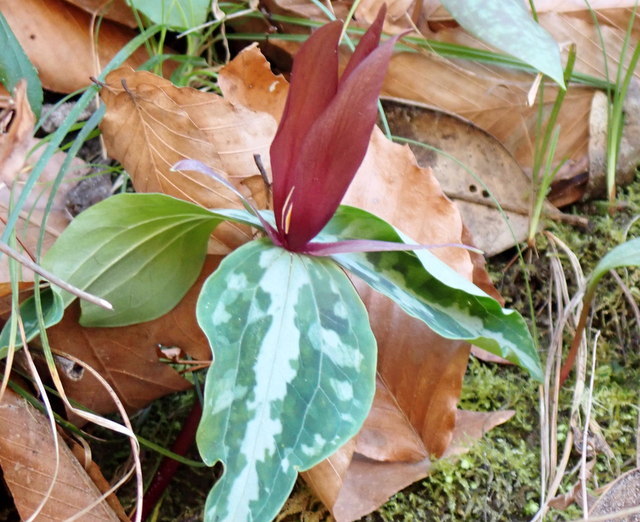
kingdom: Plantae
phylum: Tracheophyta
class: Liliopsida
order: Liliales
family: Melanthiaceae
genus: Trillium
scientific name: Trillium underwoodii
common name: Longbract wakerobin
